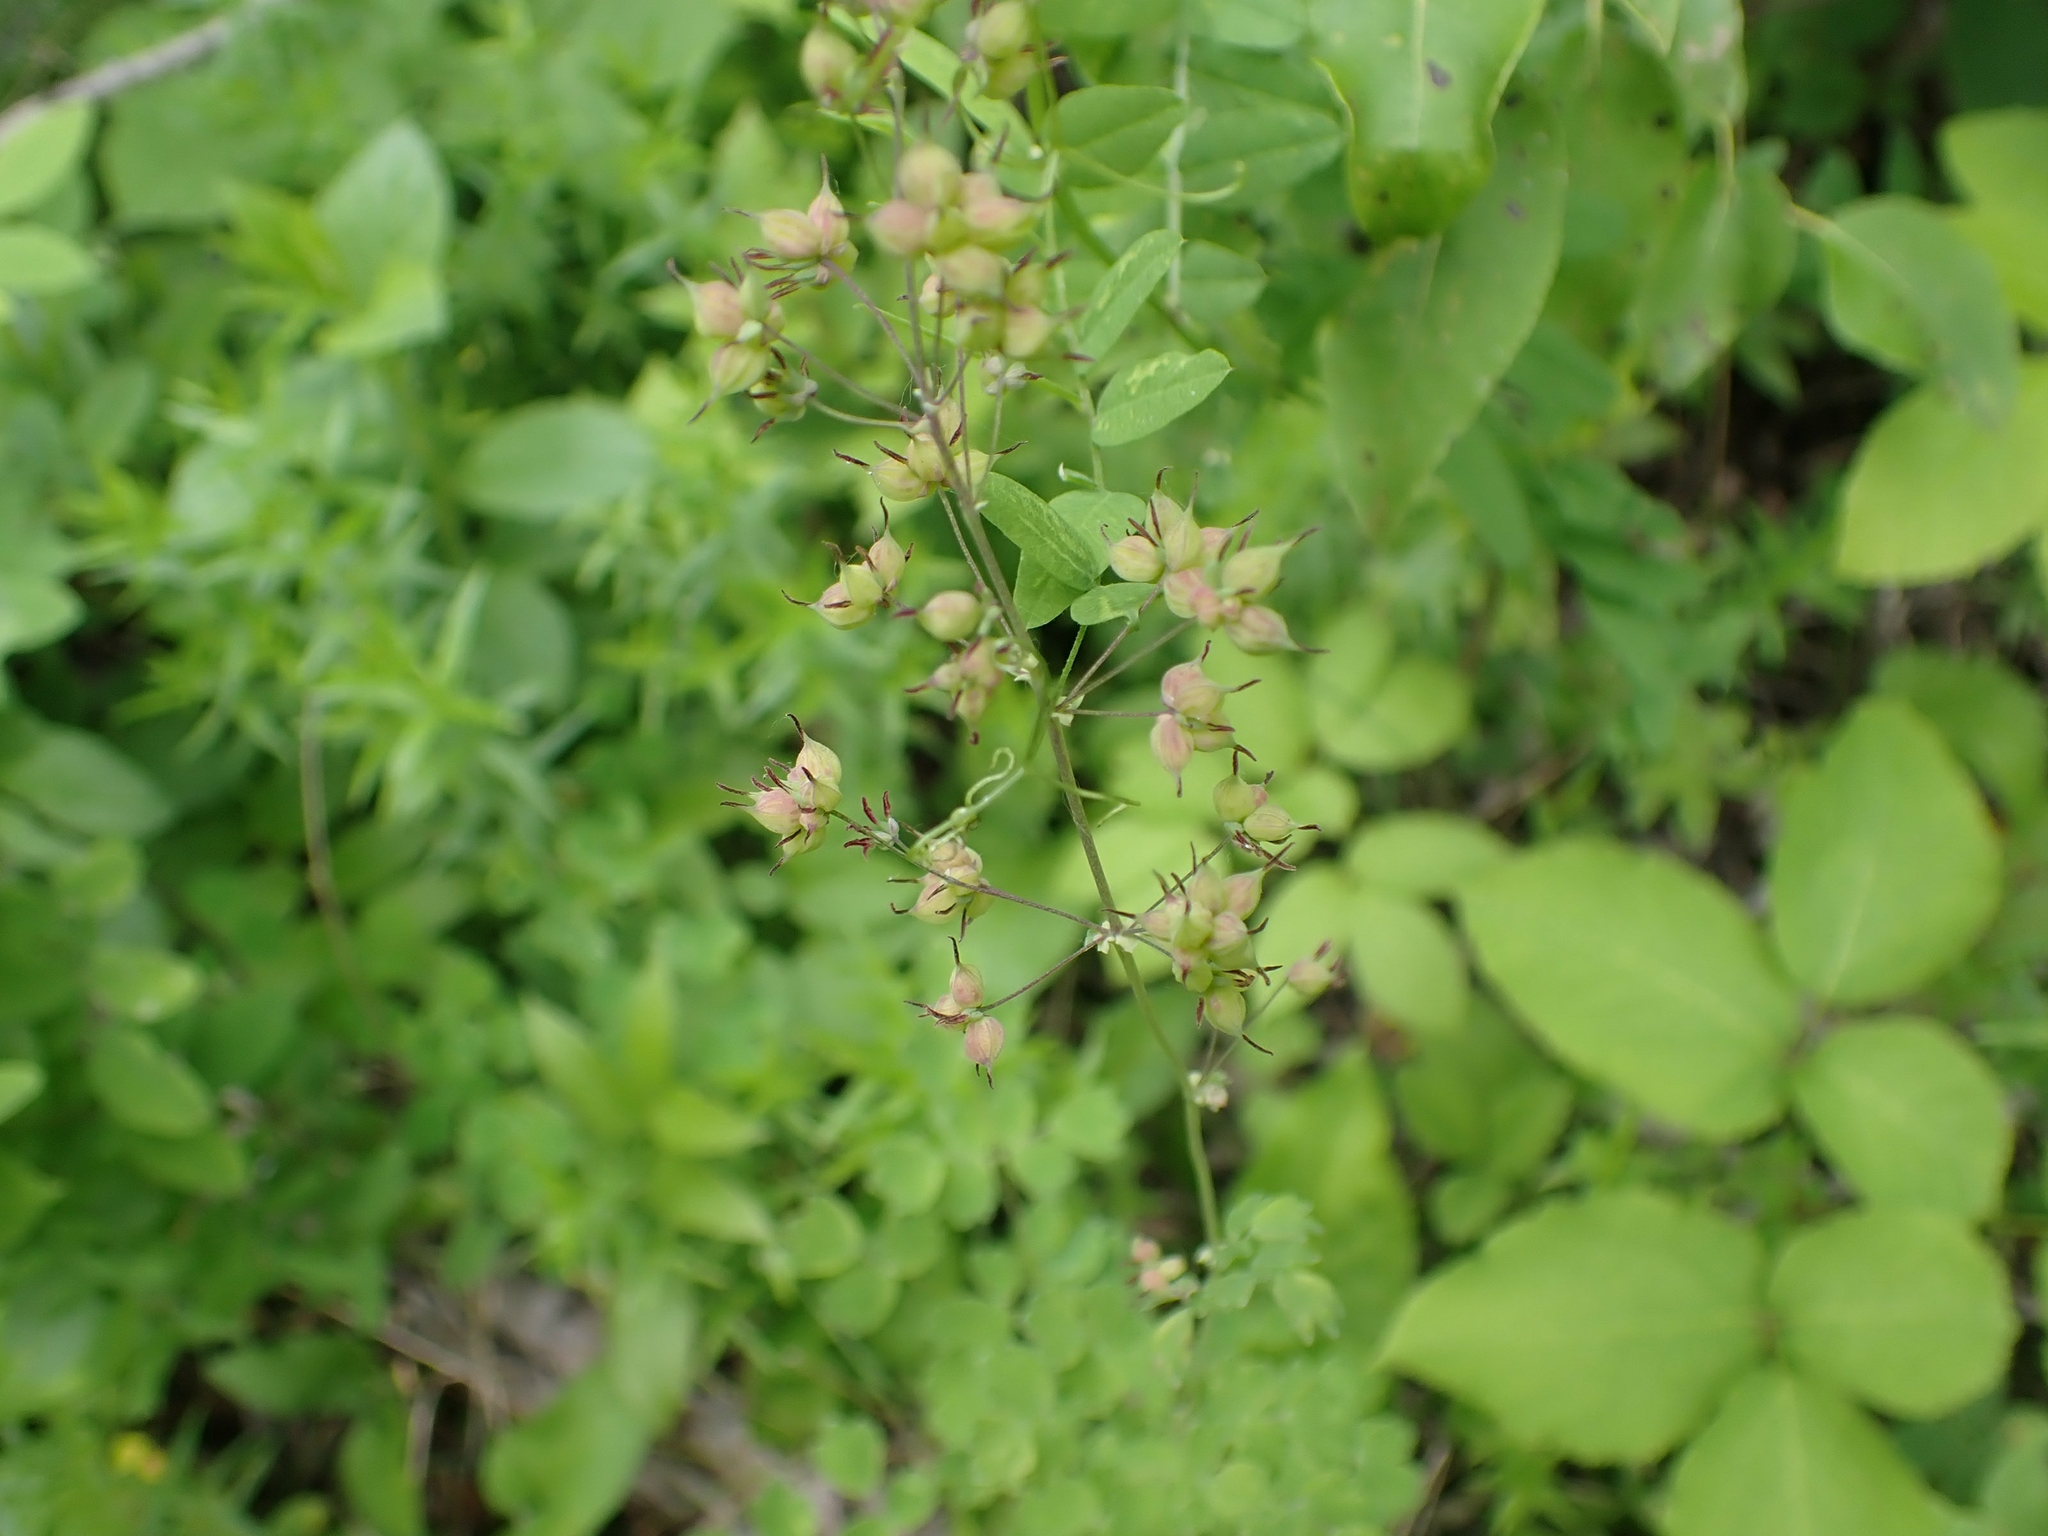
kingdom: Plantae
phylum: Tracheophyta
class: Magnoliopsida
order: Ranunculales
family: Ranunculaceae
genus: Thalictrum
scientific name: Thalictrum venulosum
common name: Early meadow-rue
